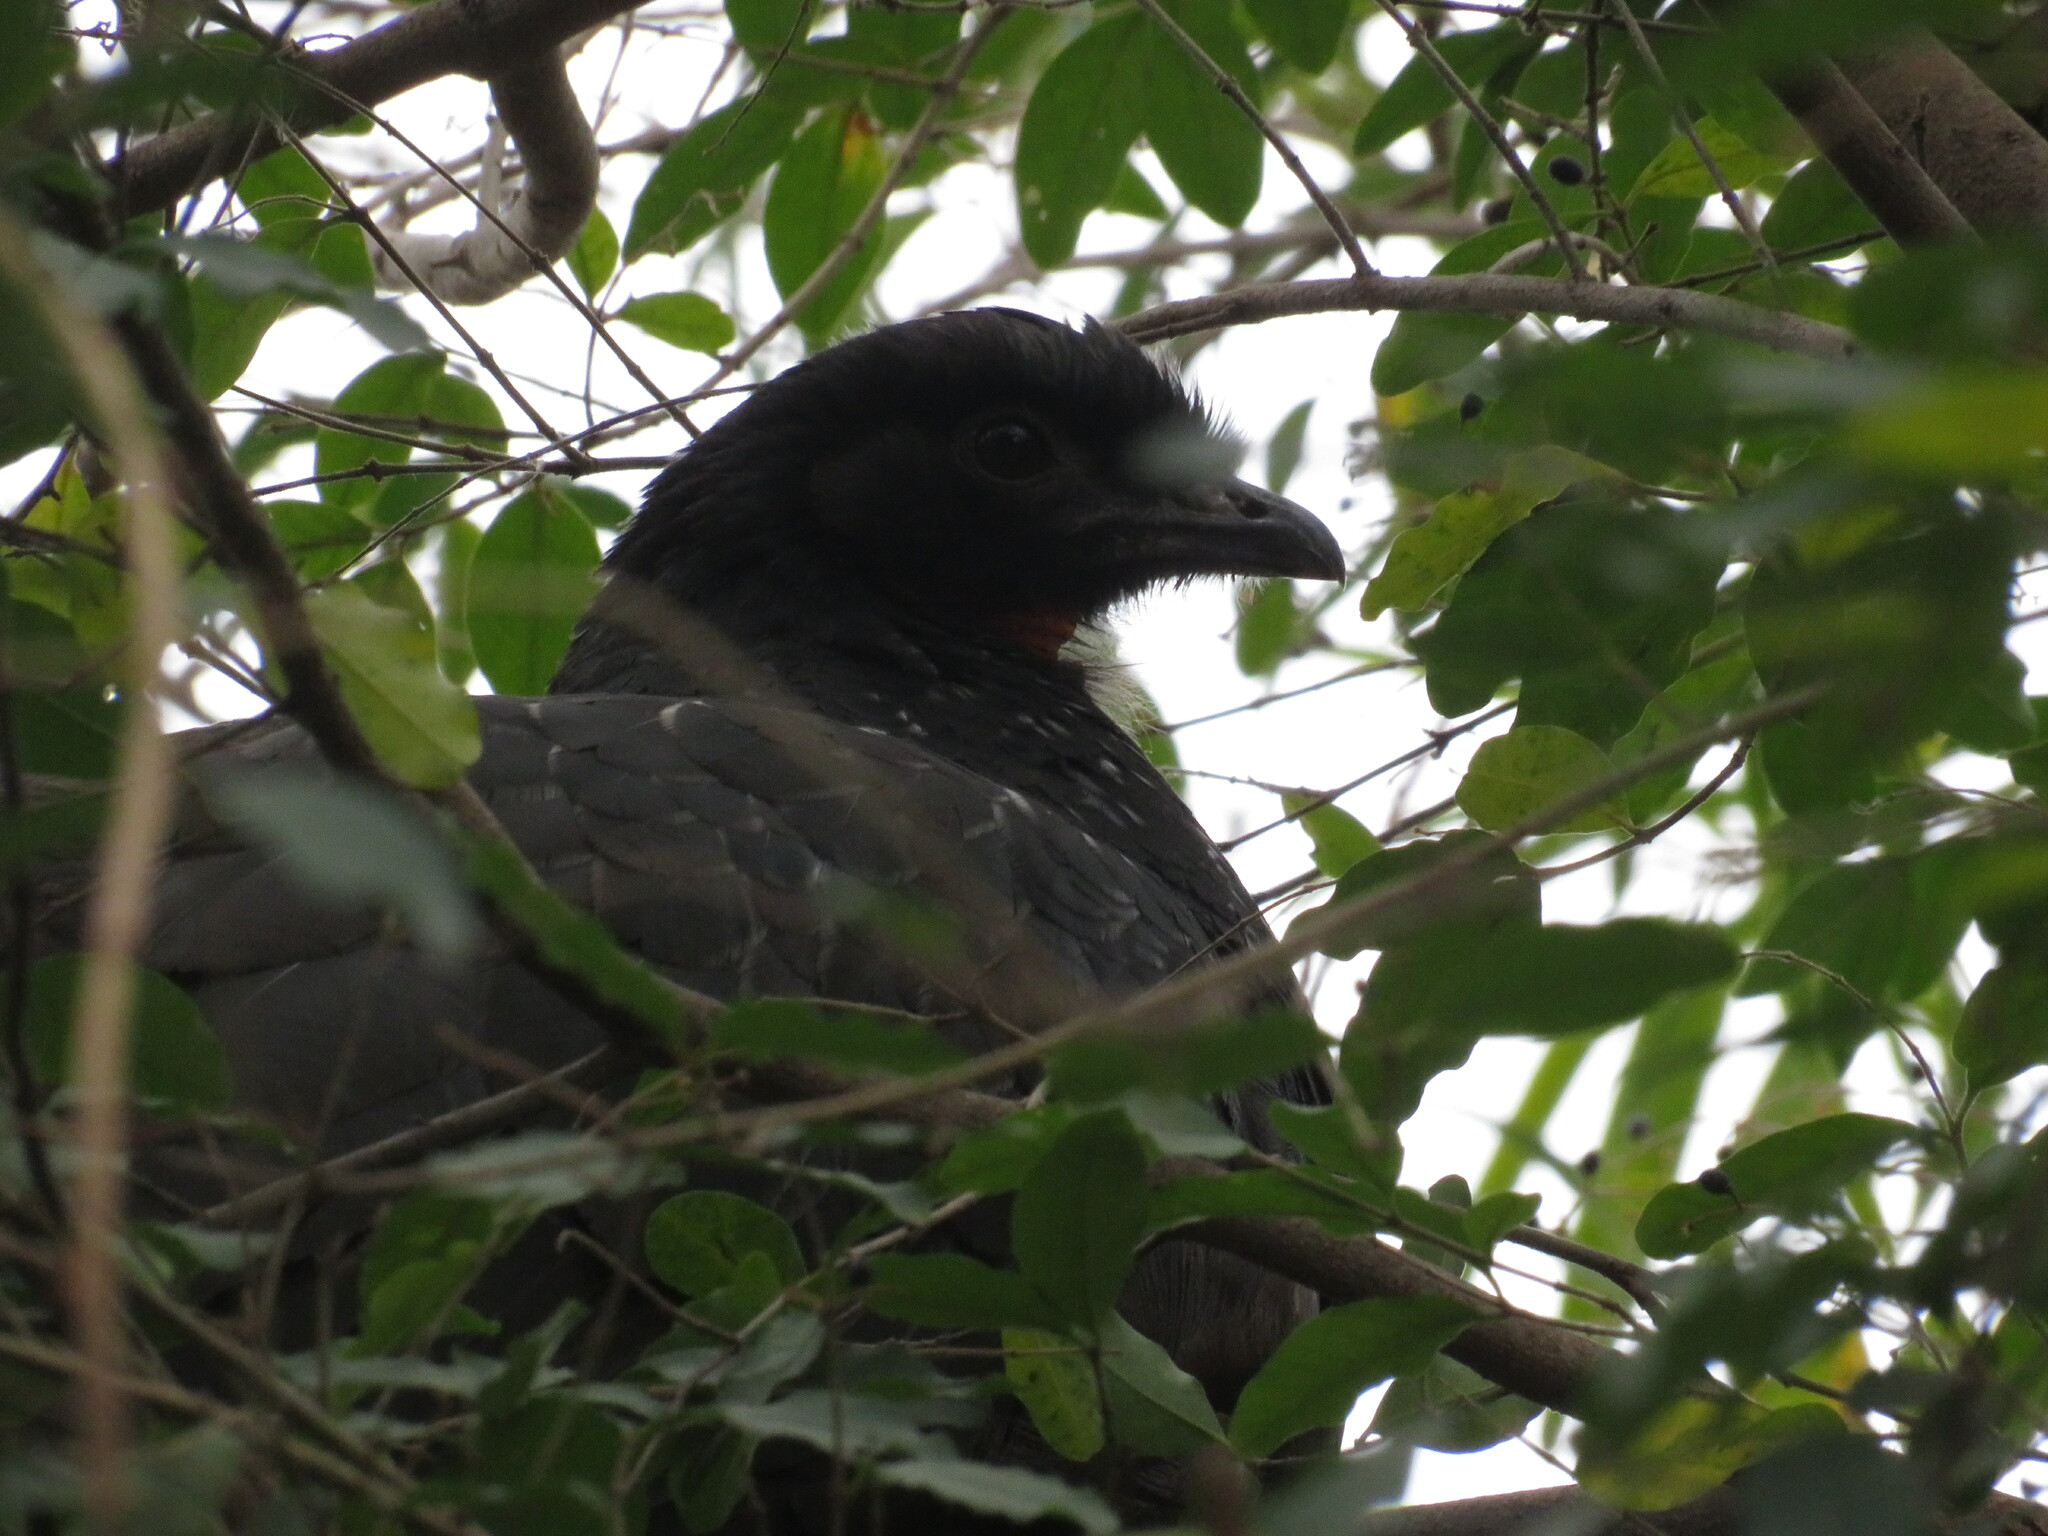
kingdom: Animalia
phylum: Chordata
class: Aves
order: Galliformes
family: Cracidae
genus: Penelope
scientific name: Penelope obscura
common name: Dusky-legged guan
